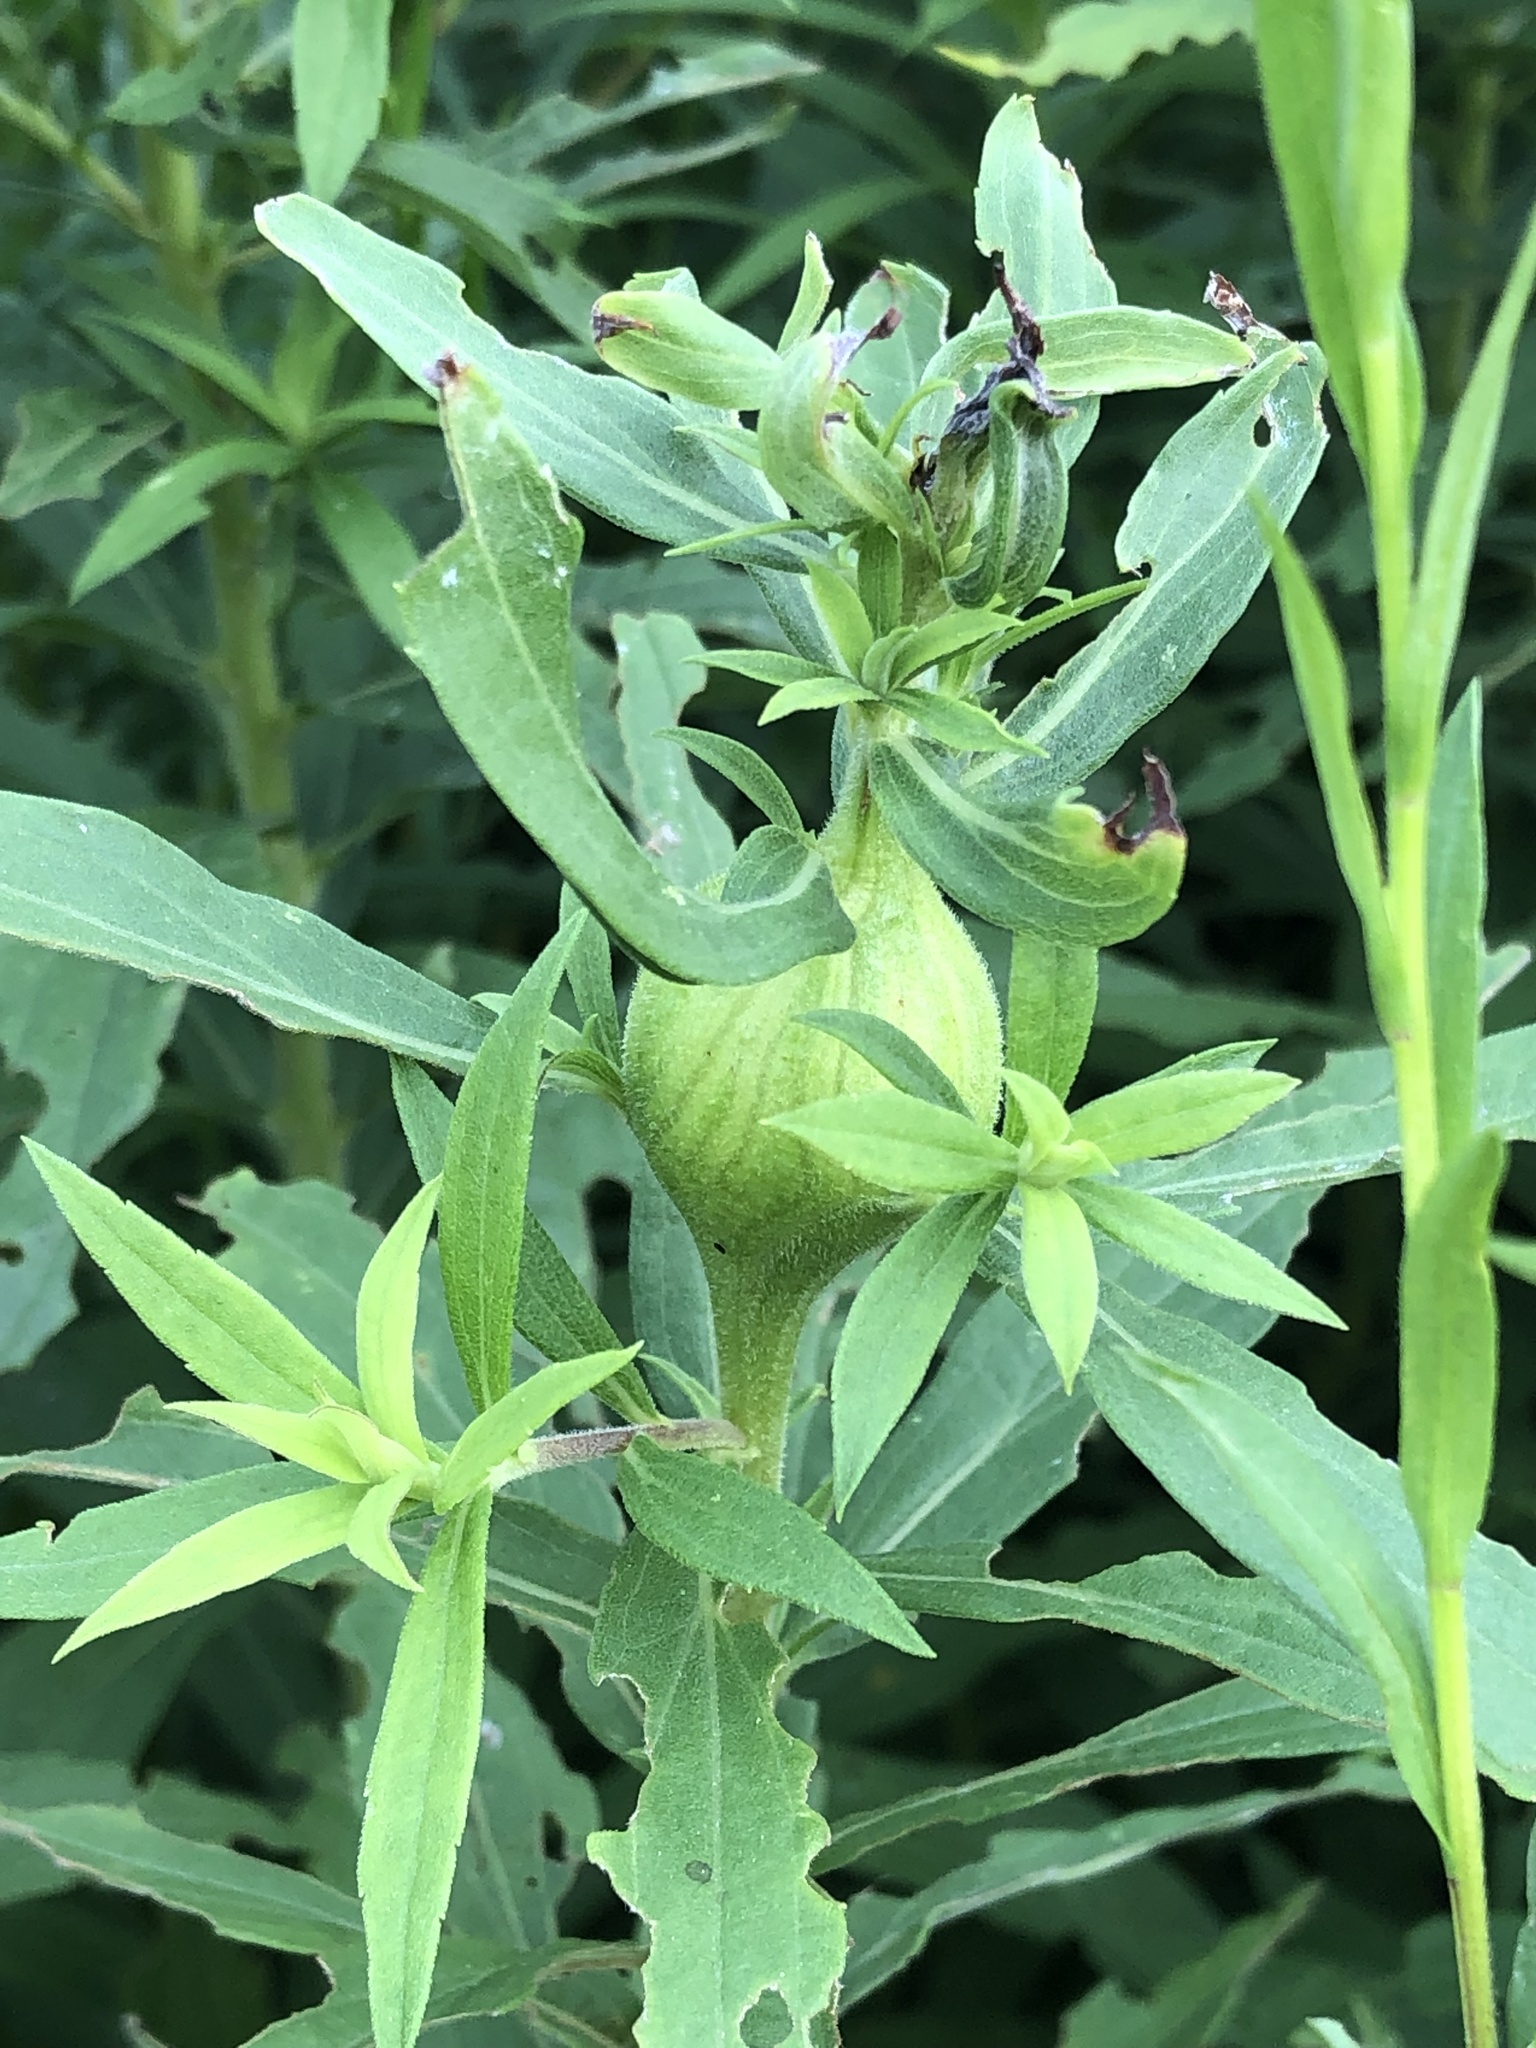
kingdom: Animalia
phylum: Arthropoda
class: Insecta
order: Diptera
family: Tephritidae
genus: Eurosta
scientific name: Eurosta solidaginis
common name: Goldenrod gall fly
